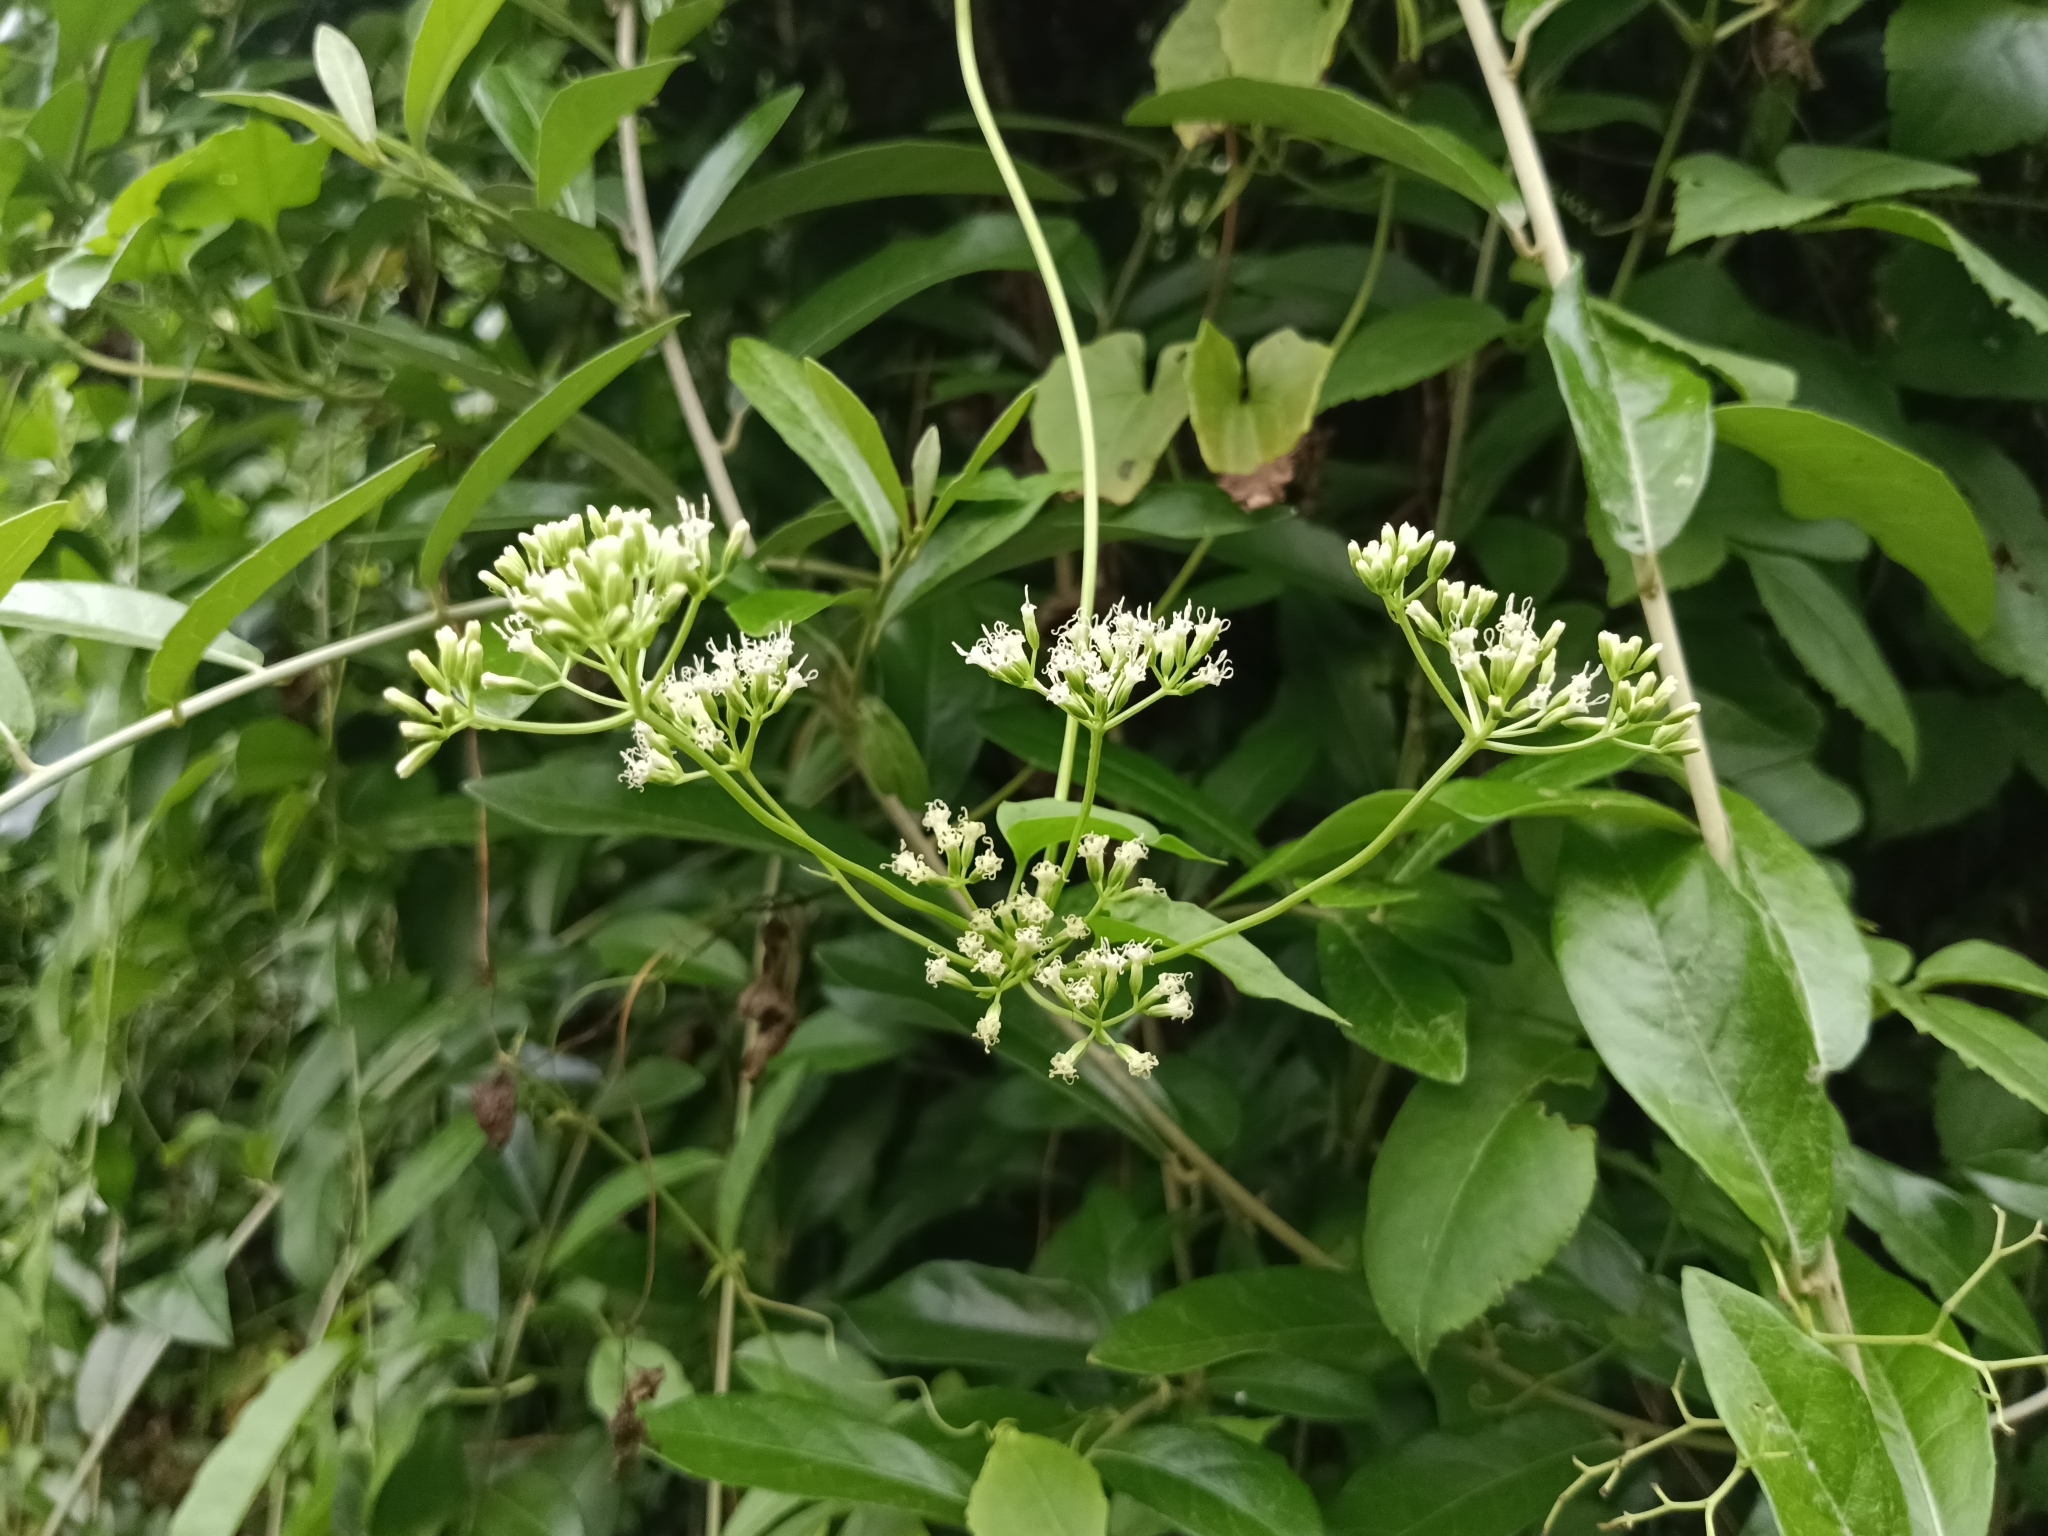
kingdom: Plantae
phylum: Tracheophyta
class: Magnoliopsida
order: Asterales
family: Asteraceae
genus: Mikania
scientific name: Mikania micrantha
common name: Mile-a-minute
